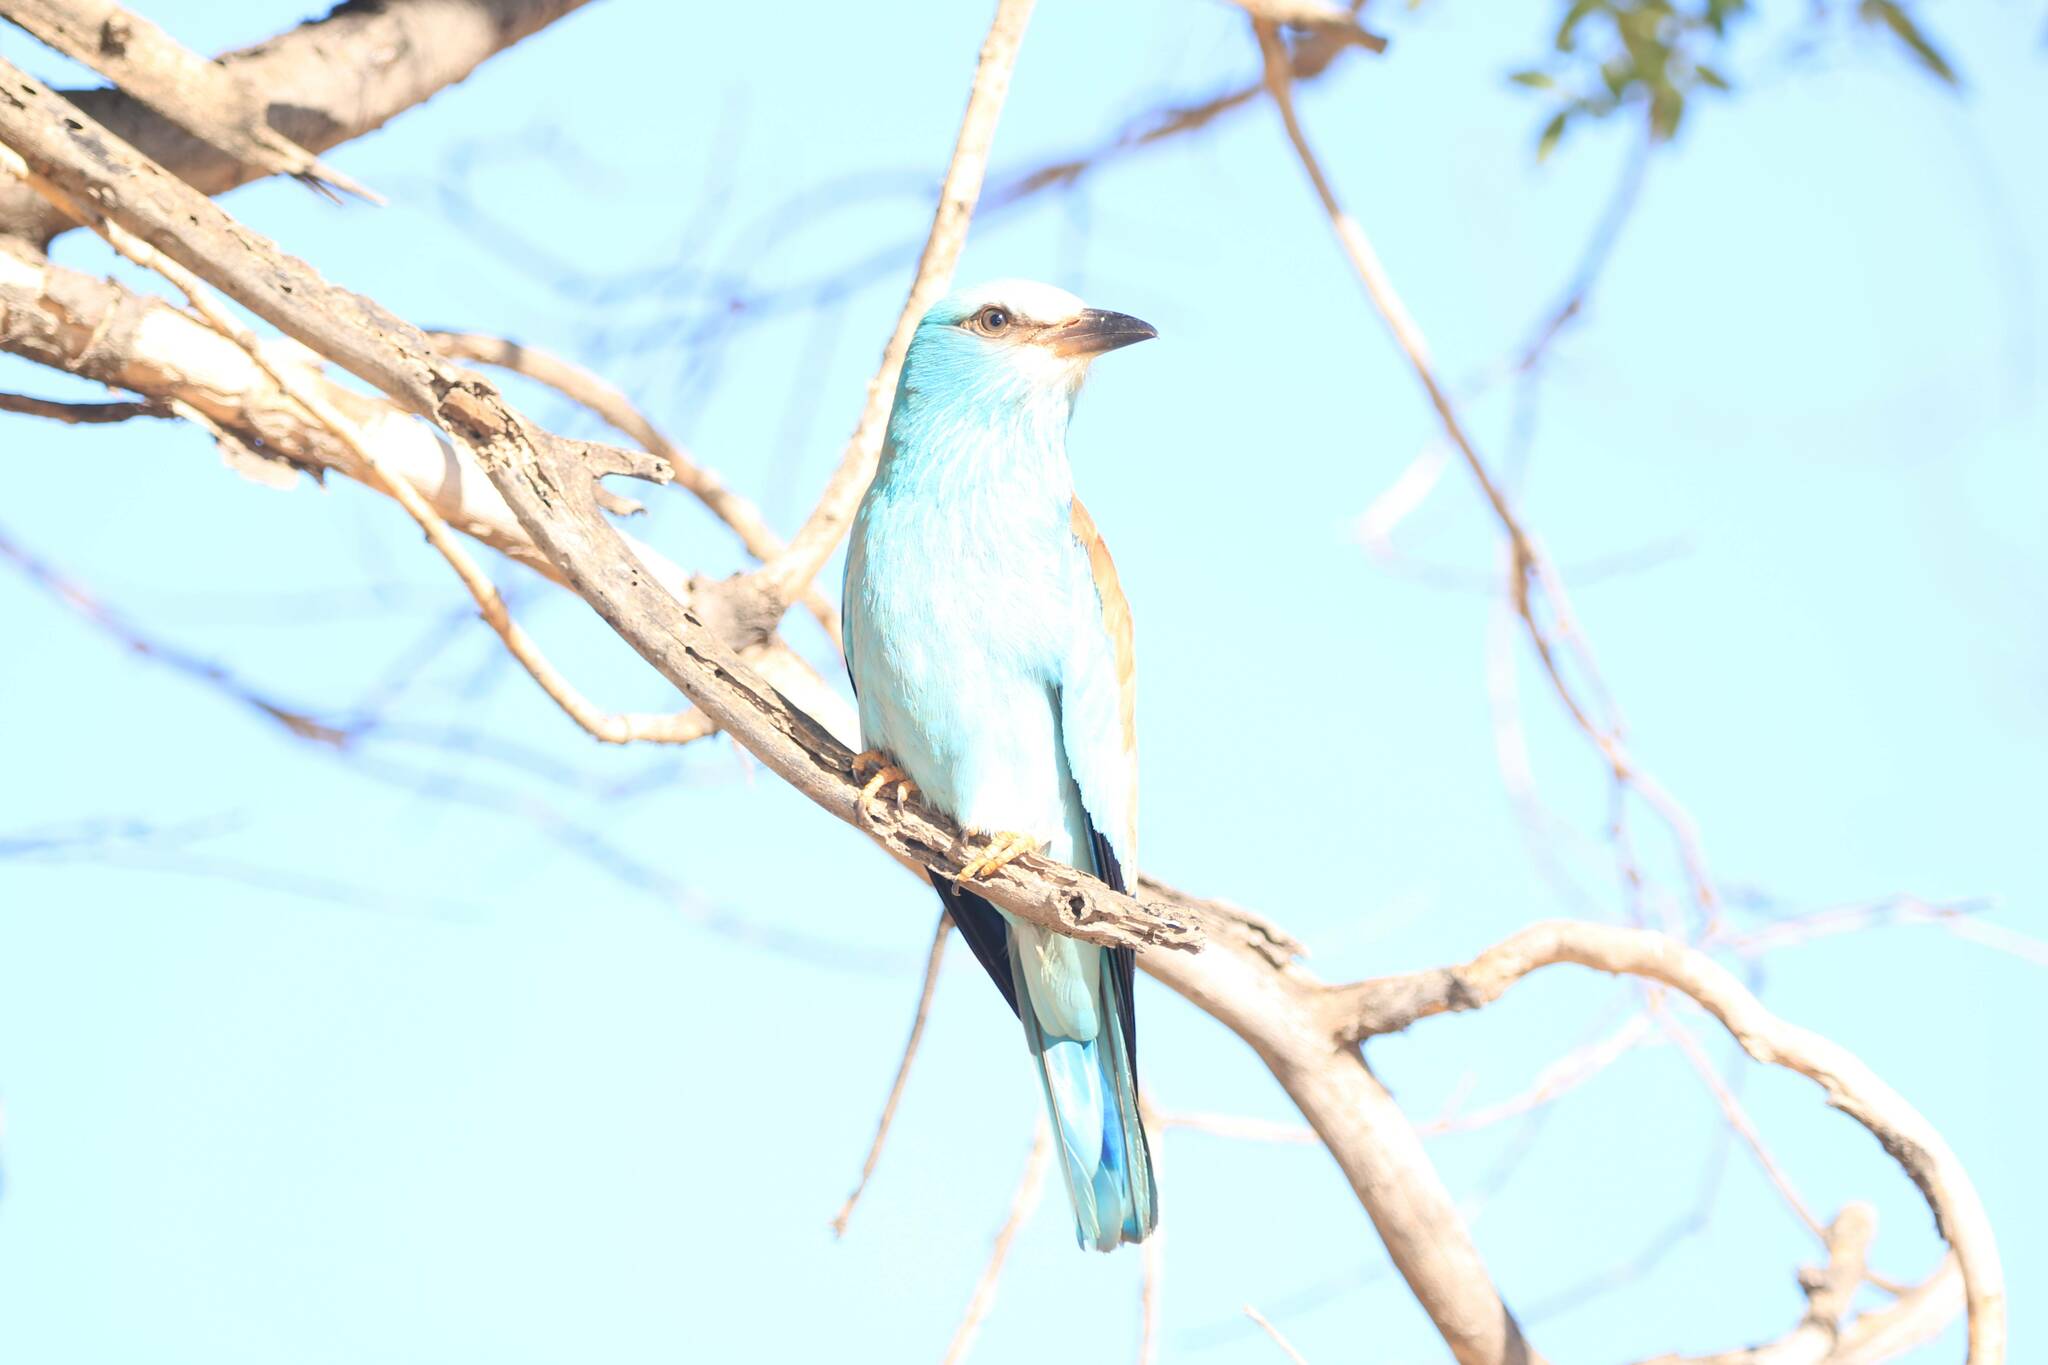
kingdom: Animalia
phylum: Chordata
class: Aves
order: Coraciiformes
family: Coraciidae
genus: Coracias
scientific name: Coracias garrulus
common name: European roller
